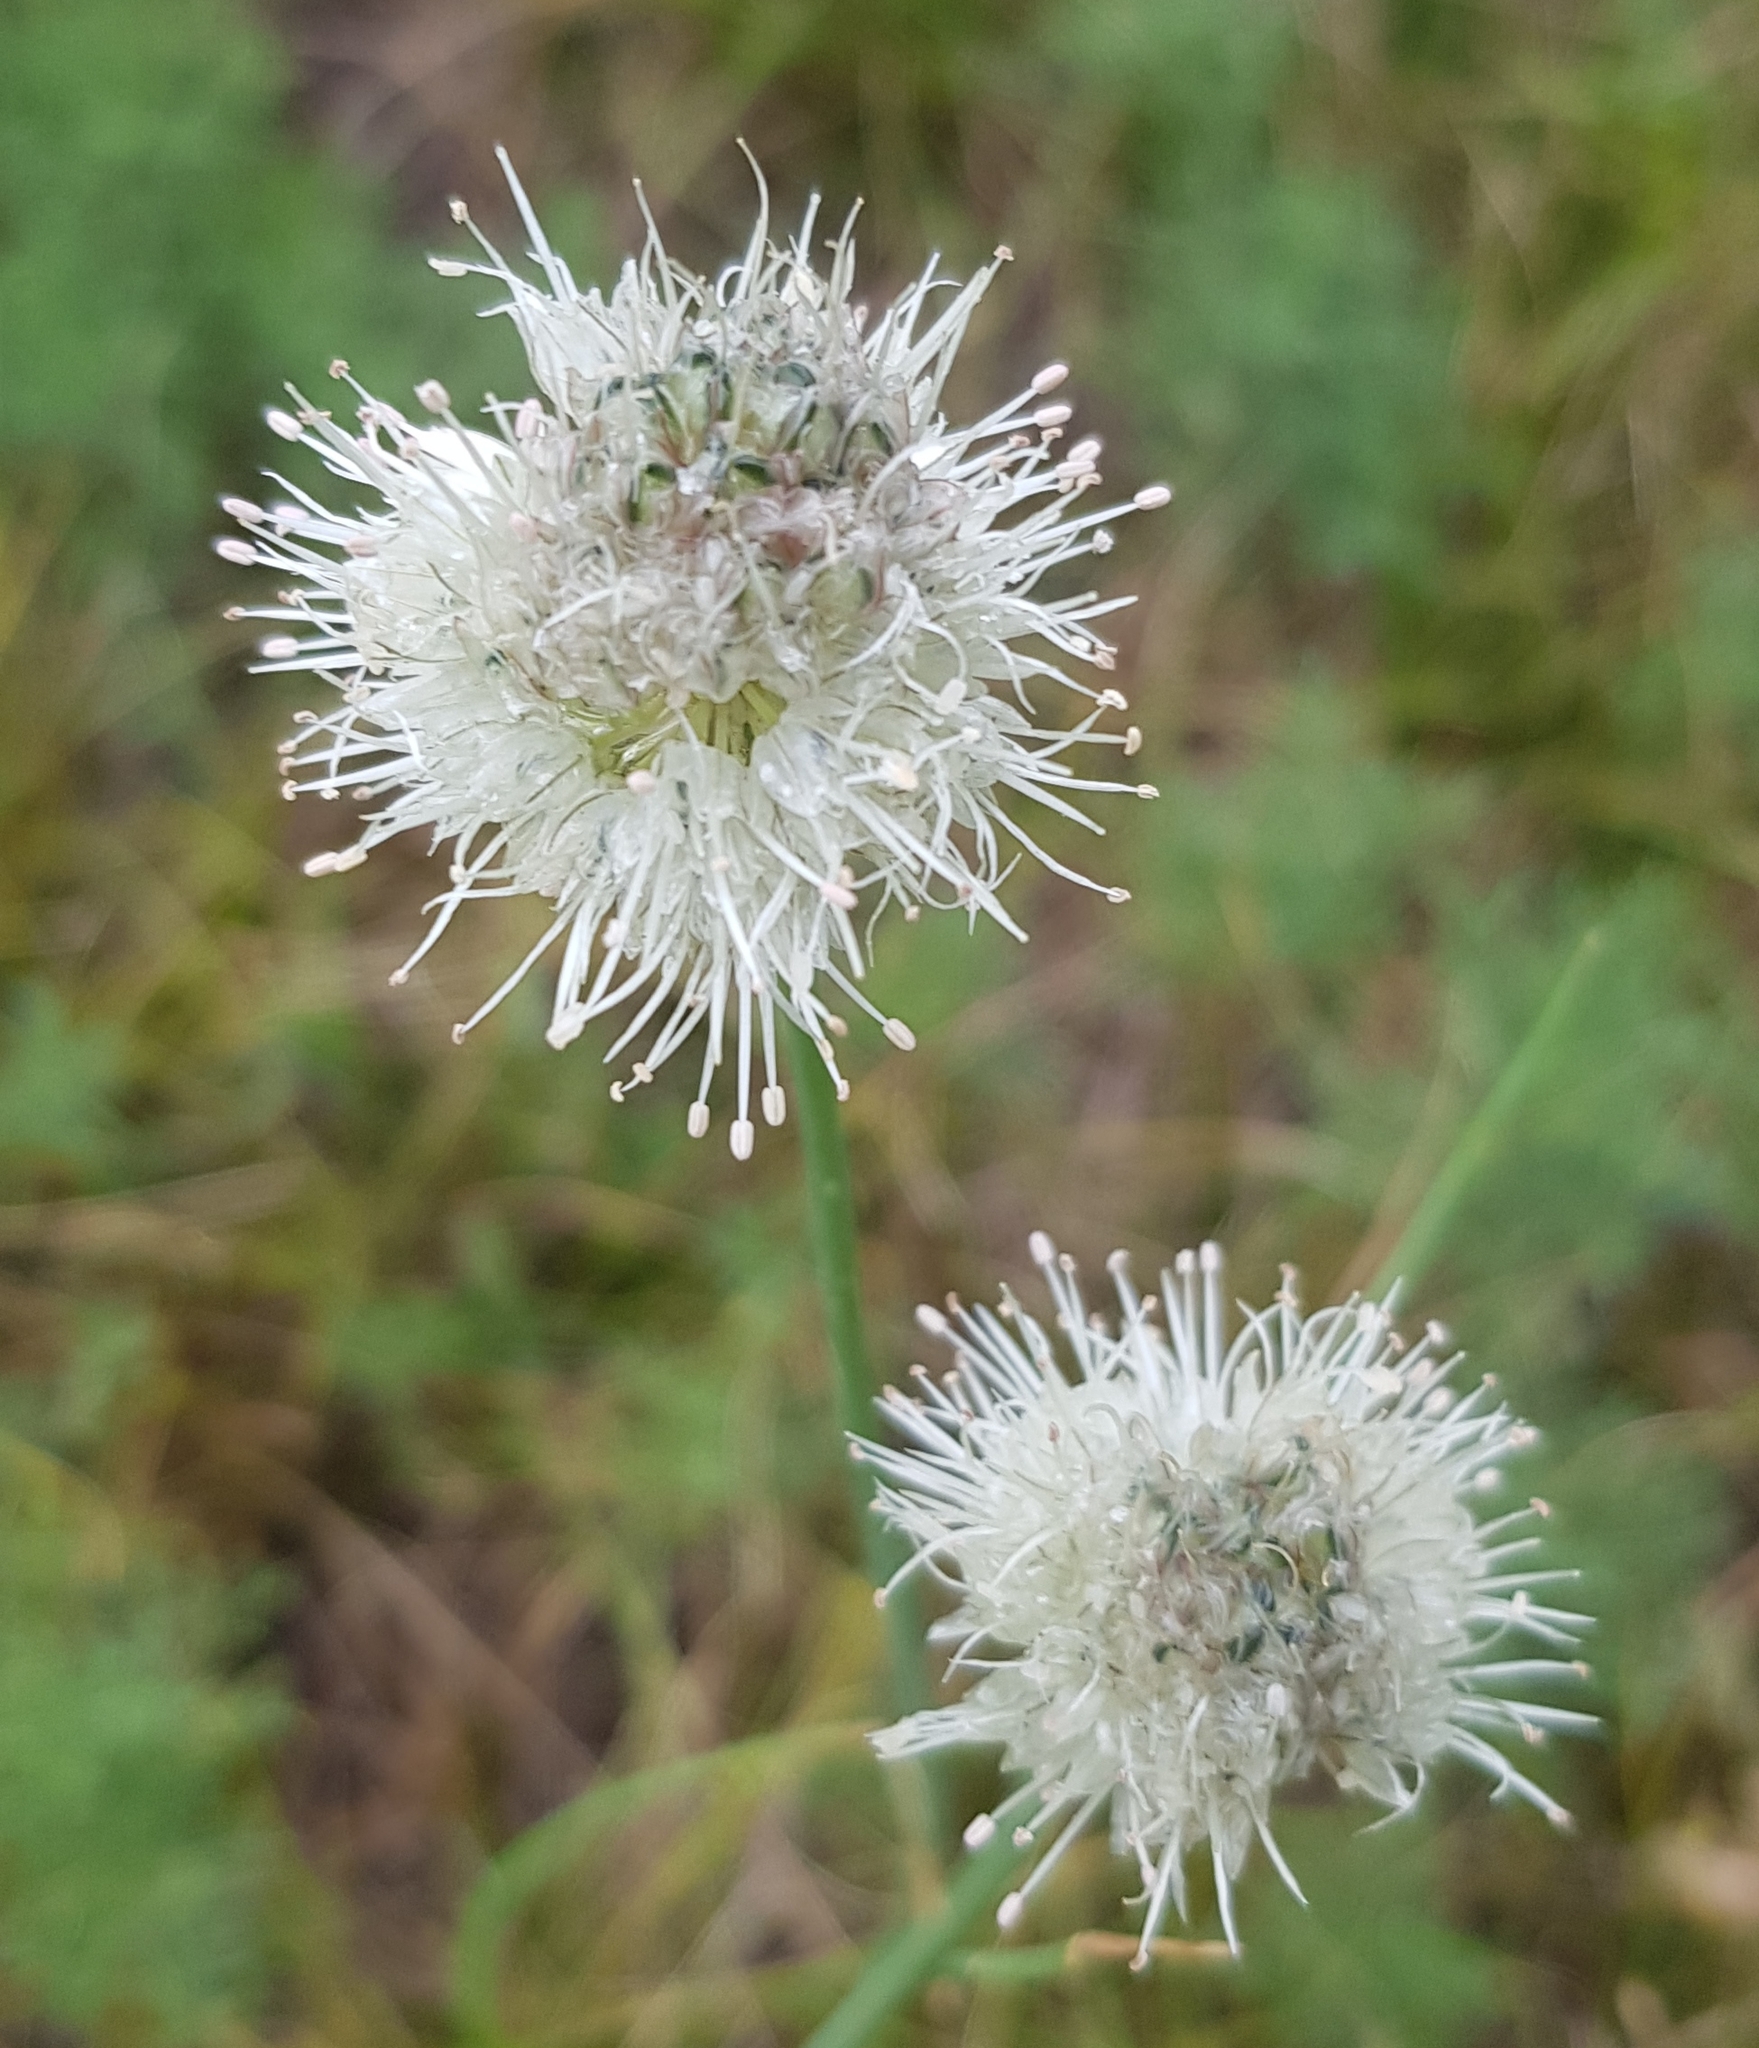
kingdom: Plantae
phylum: Tracheophyta
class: Liliopsida
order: Asparagales
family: Amaryllidaceae
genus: Allium
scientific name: Allium leucocephalum
